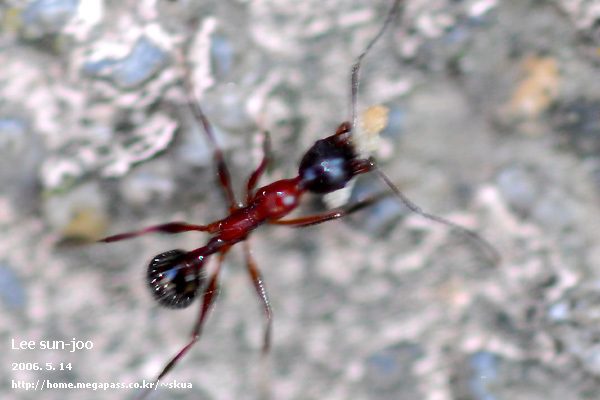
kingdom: Animalia
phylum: Arthropoda
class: Insecta
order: Hymenoptera
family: Formicidae
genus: Aphaenogaster
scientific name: Aphaenogaster lepida
